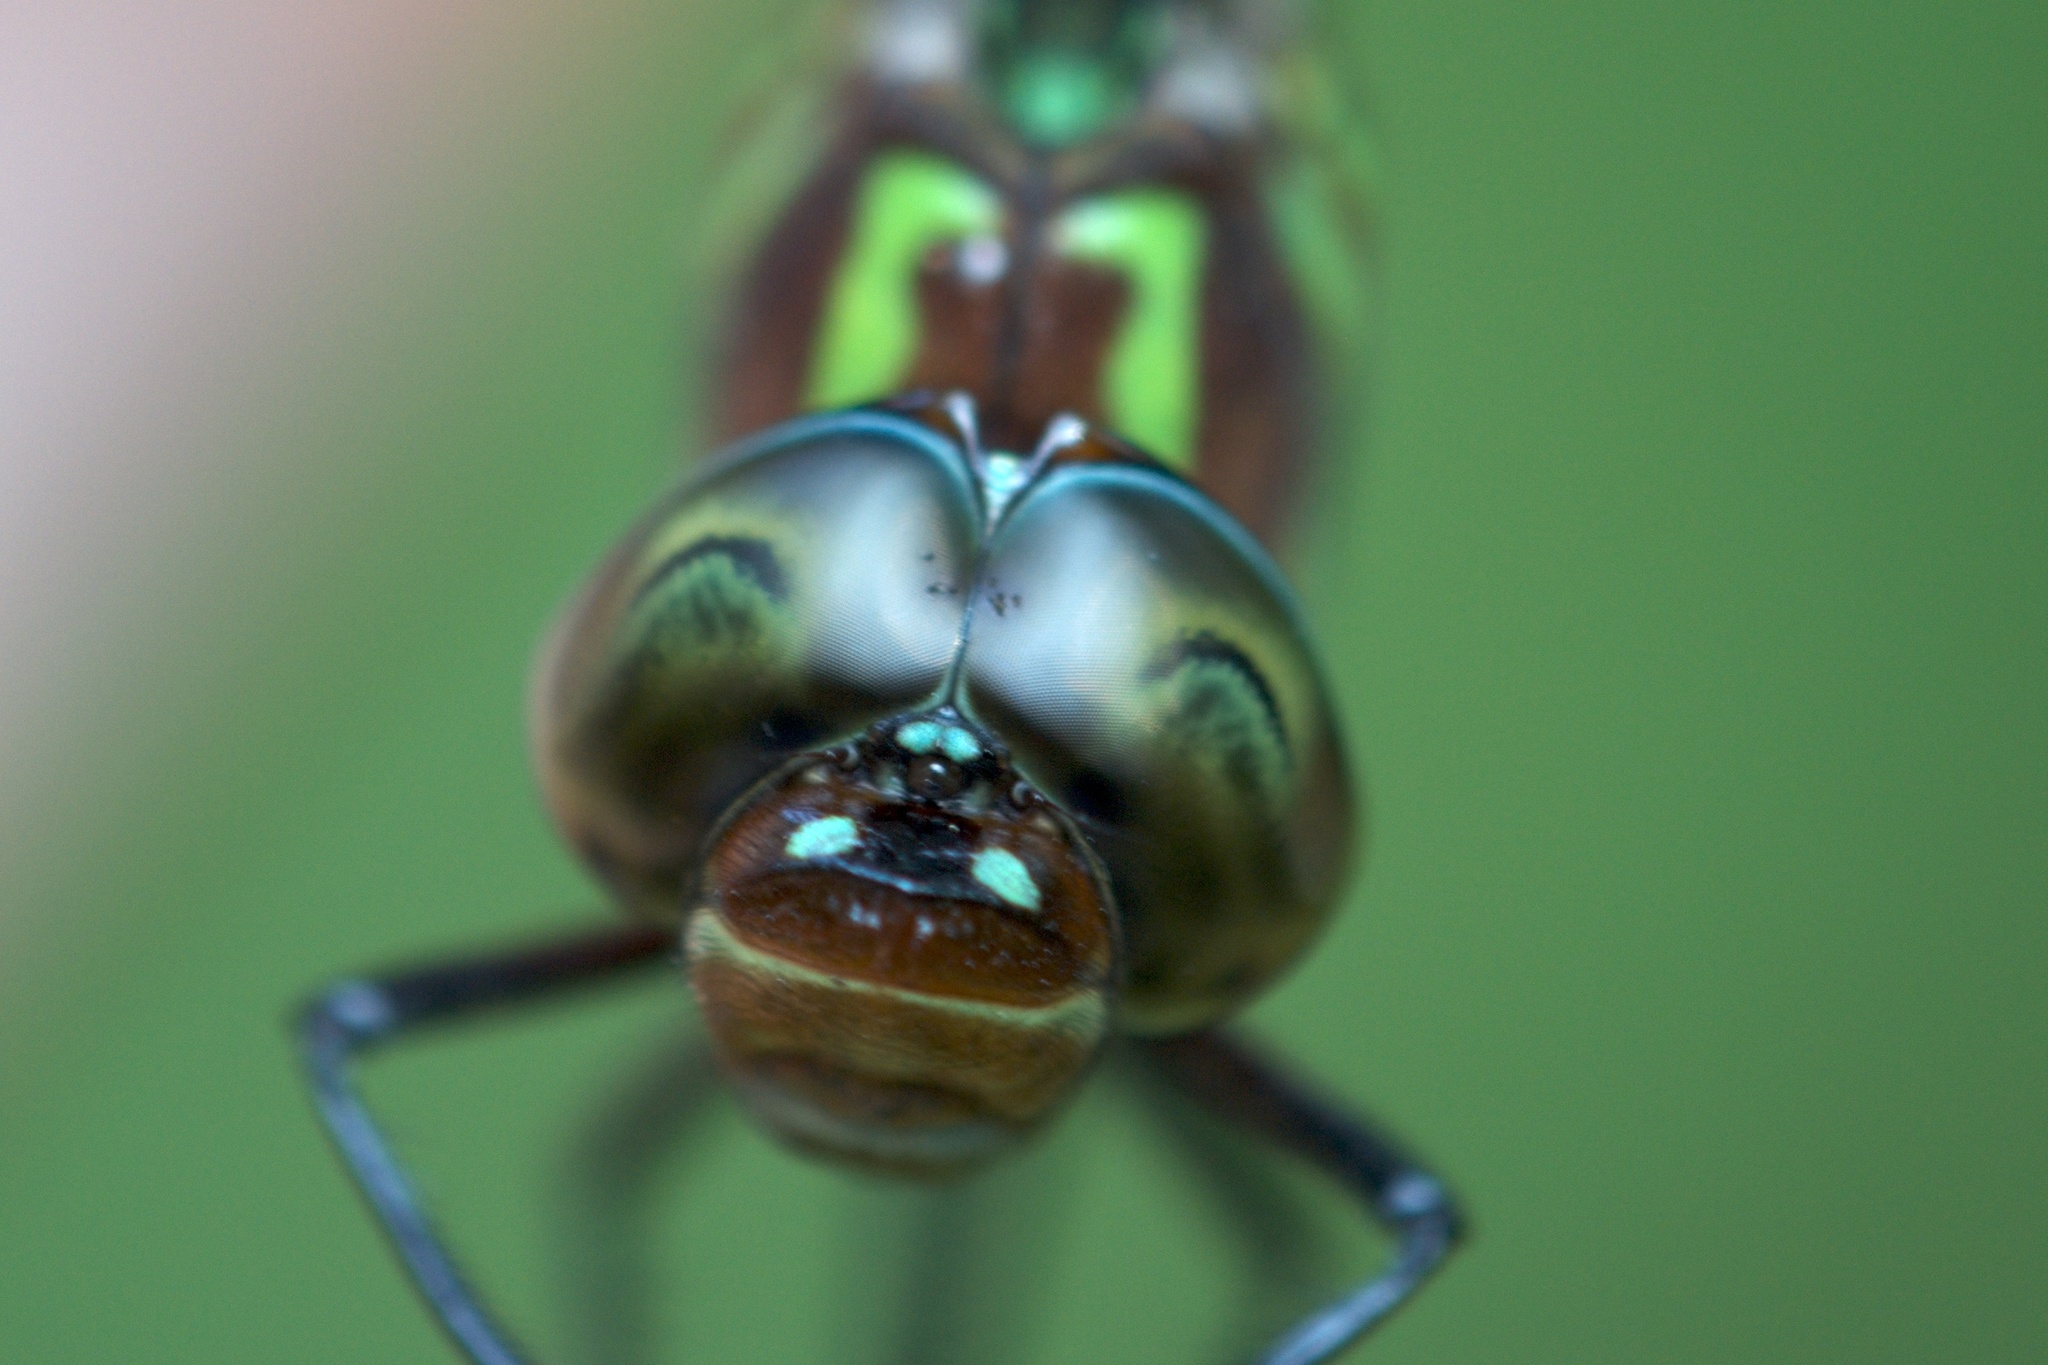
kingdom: Animalia
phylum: Arthropoda
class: Insecta
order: Odonata
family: Aeshnidae
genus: Epiaeschna
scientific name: Epiaeschna heros
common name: Swamp darner
